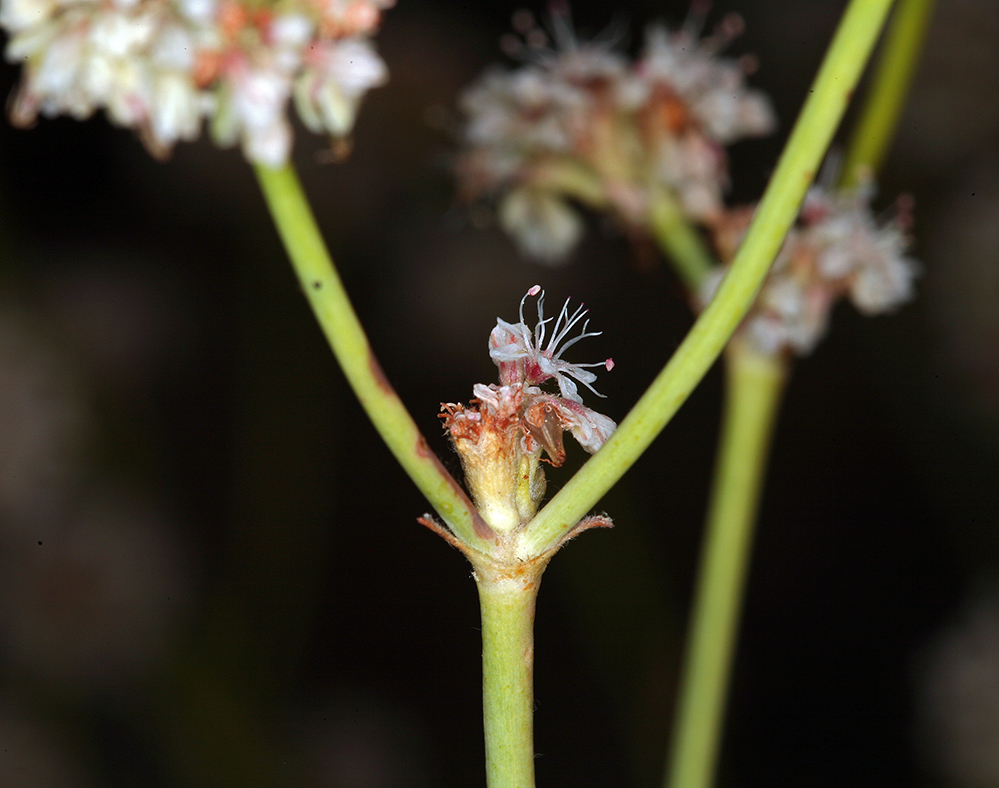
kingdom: Plantae
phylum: Tracheophyta
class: Magnoliopsida
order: Caryophyllales
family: Polygonaceae
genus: Eriogonum
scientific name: Eriogonum elatum
